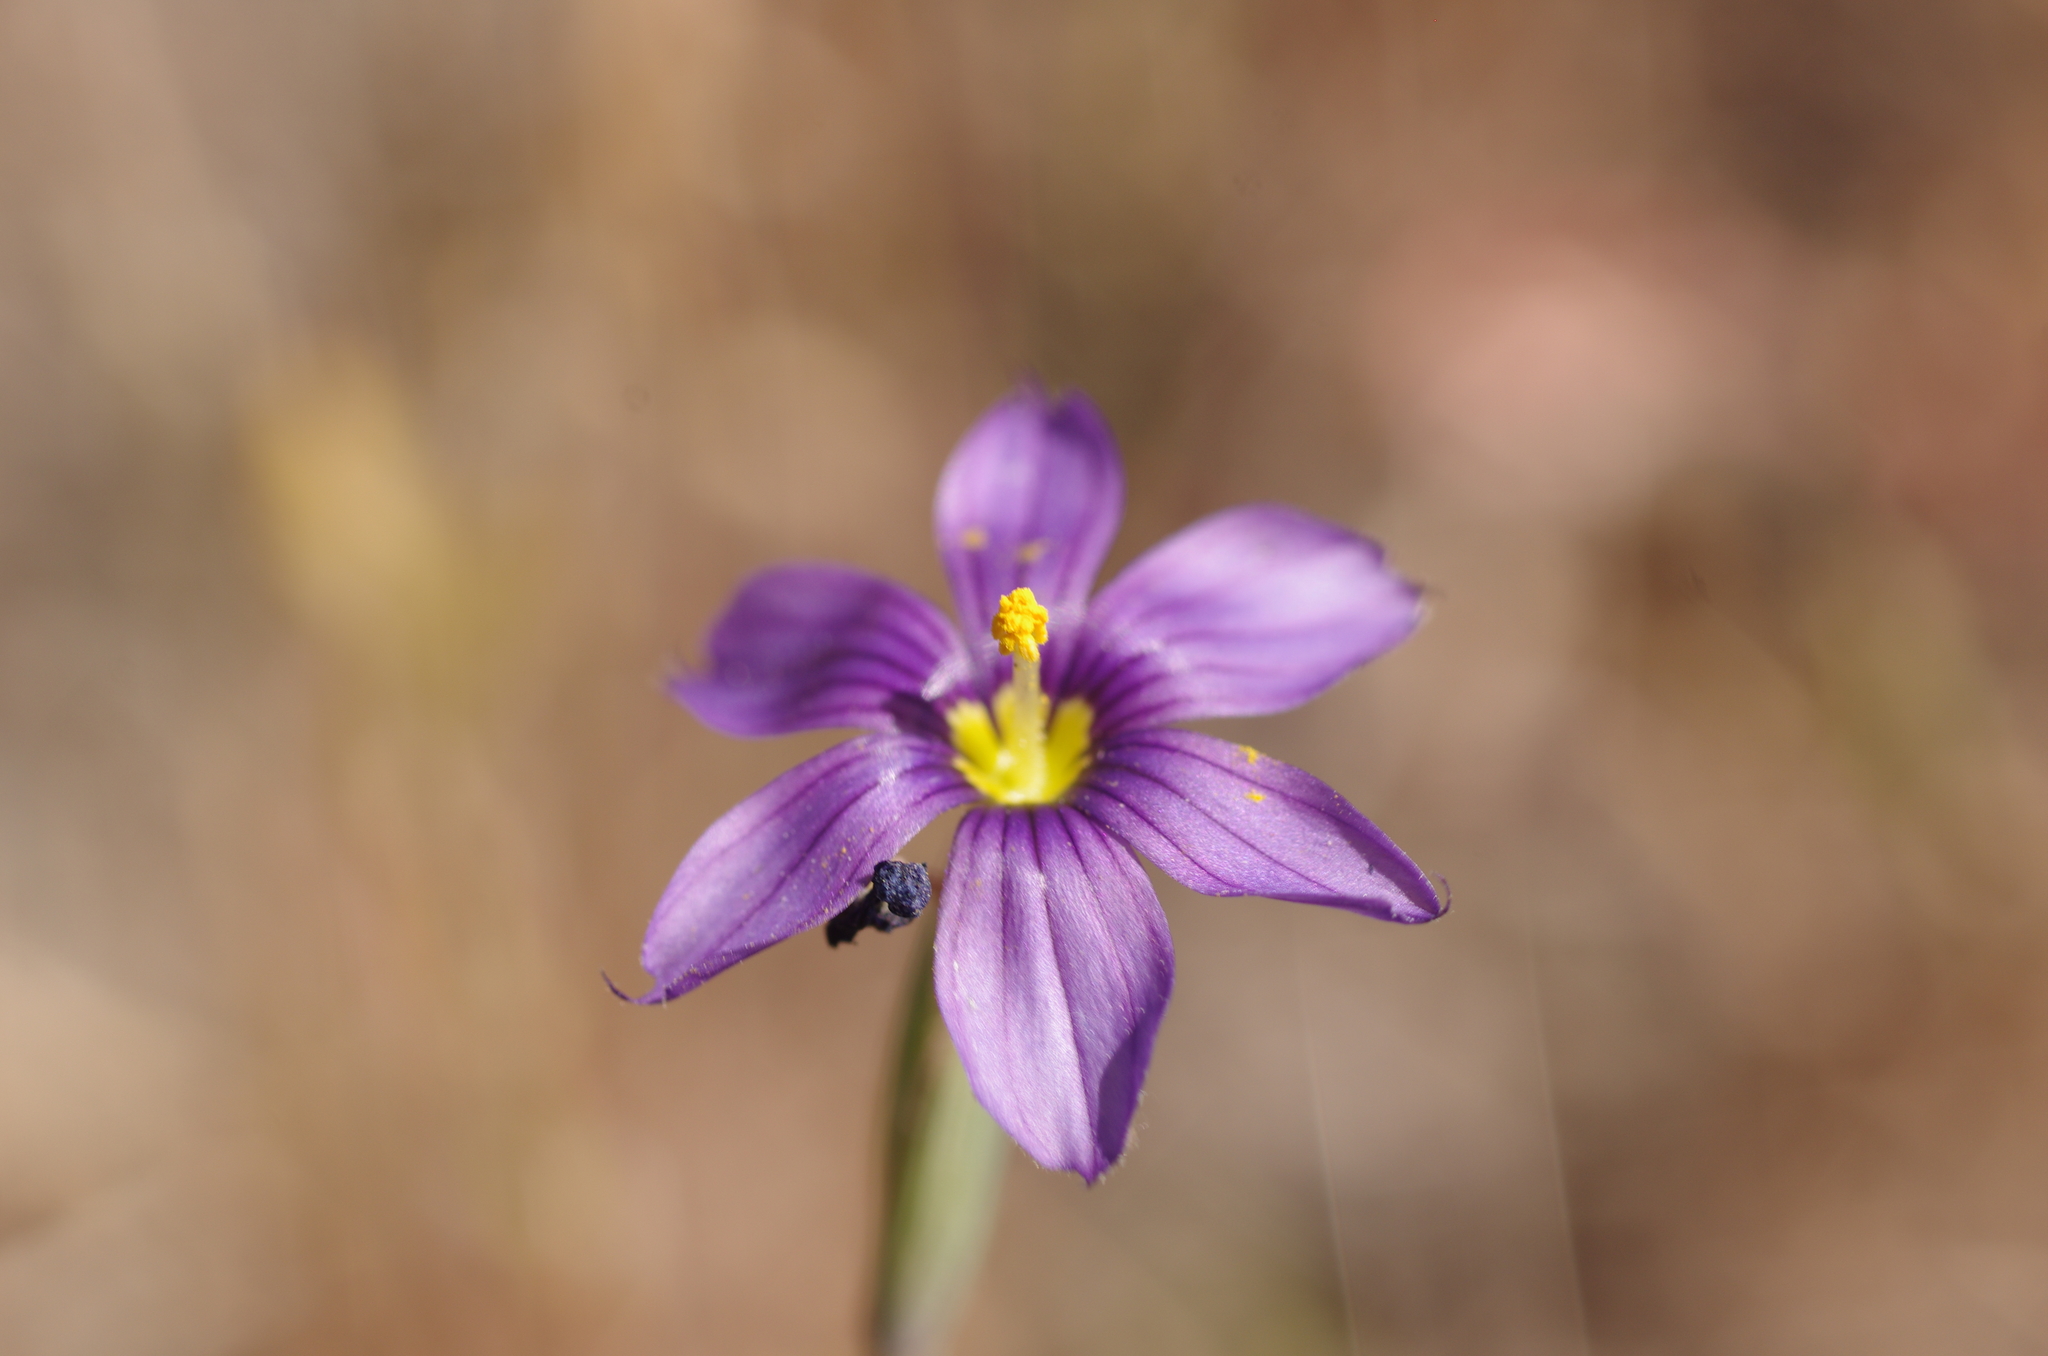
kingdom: Plantae
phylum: Tracheophyta
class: Liliopsida
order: Asparagales
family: Iridaceae
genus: Sisyrinchium
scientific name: Sisyrinchium bellum
